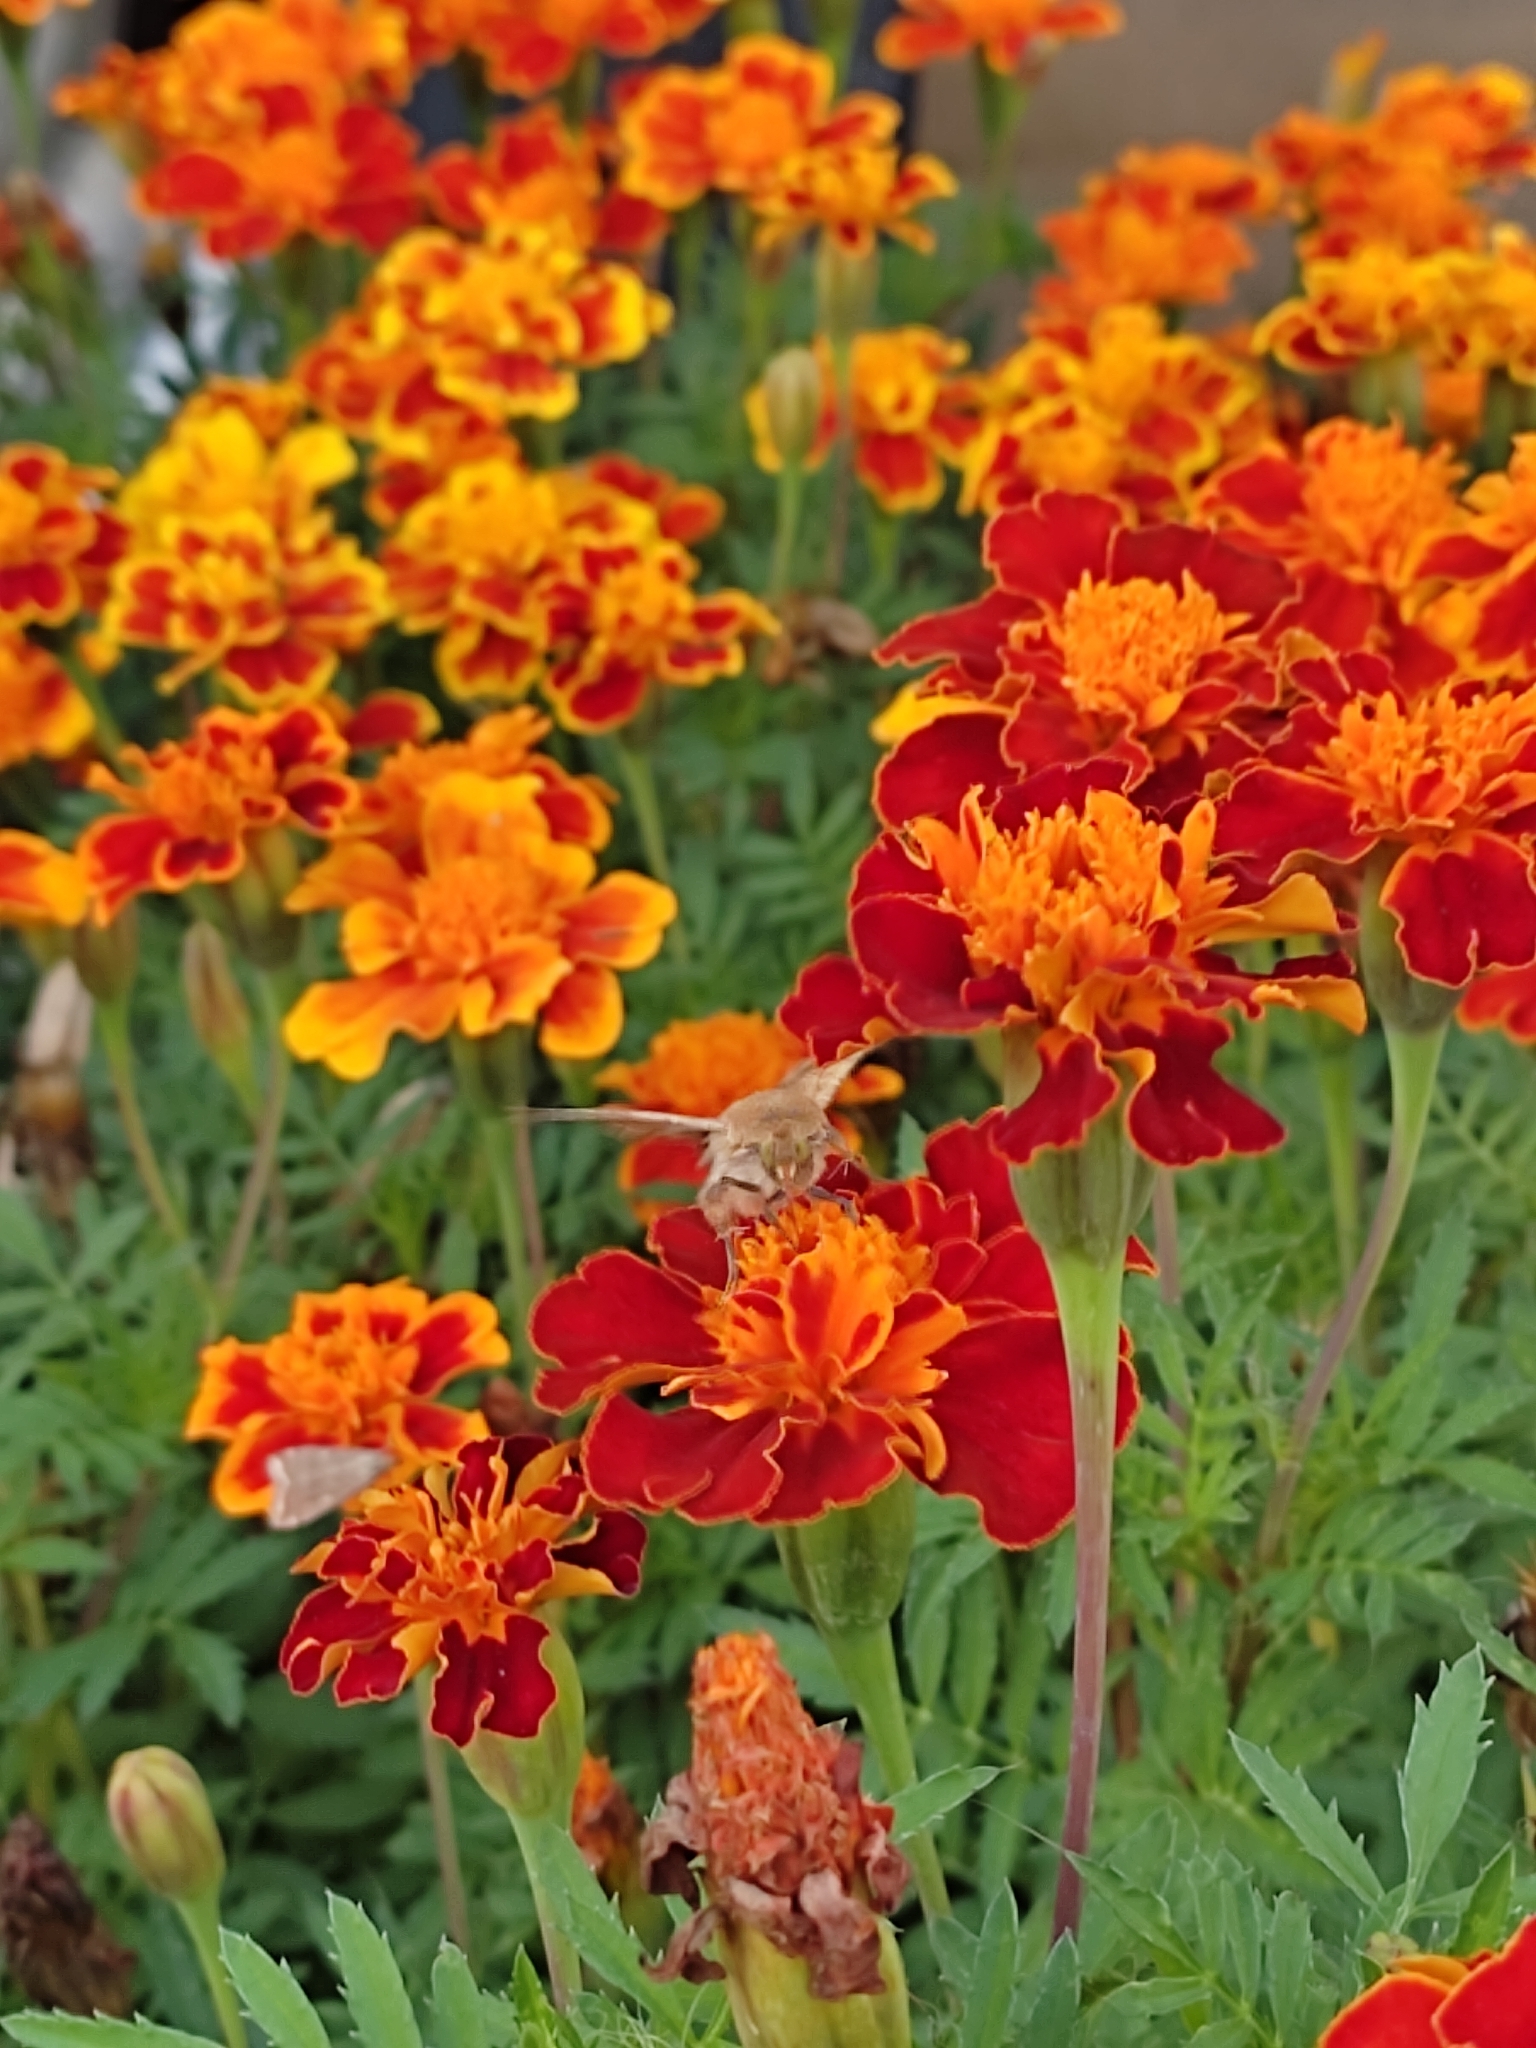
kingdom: Animalia
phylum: Arthropoda
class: Insecta
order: Lepidoptera
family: Noctuidae
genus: Helicoverpa
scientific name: Helicoverpa armigera
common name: Cotton bollworm
